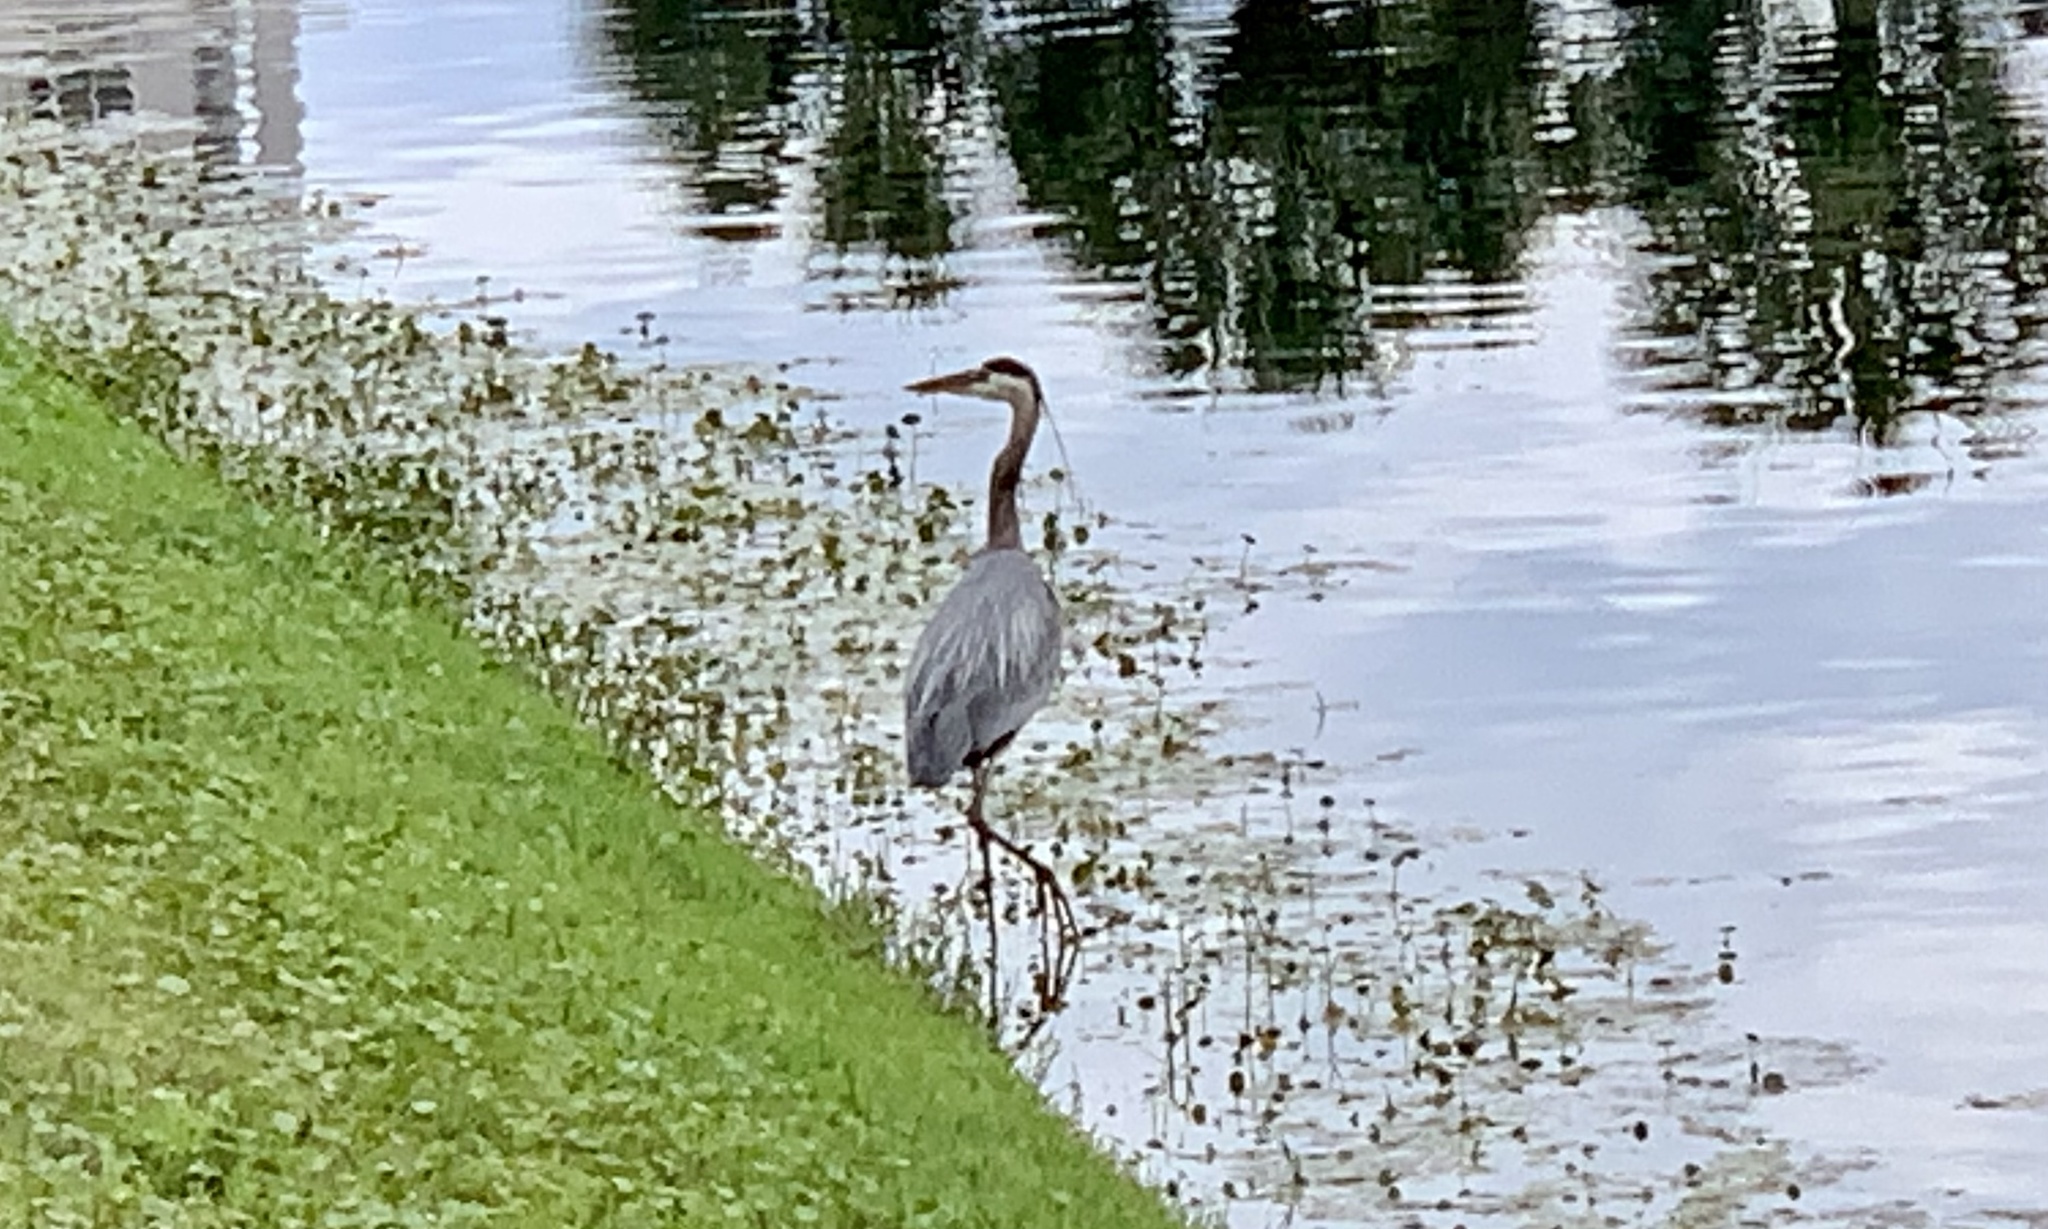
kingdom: Animalia
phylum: Chordata
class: Aves
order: Pelecaniformes
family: Ardeidae
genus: Ardea
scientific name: Ardea herodias
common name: Great blue heron
